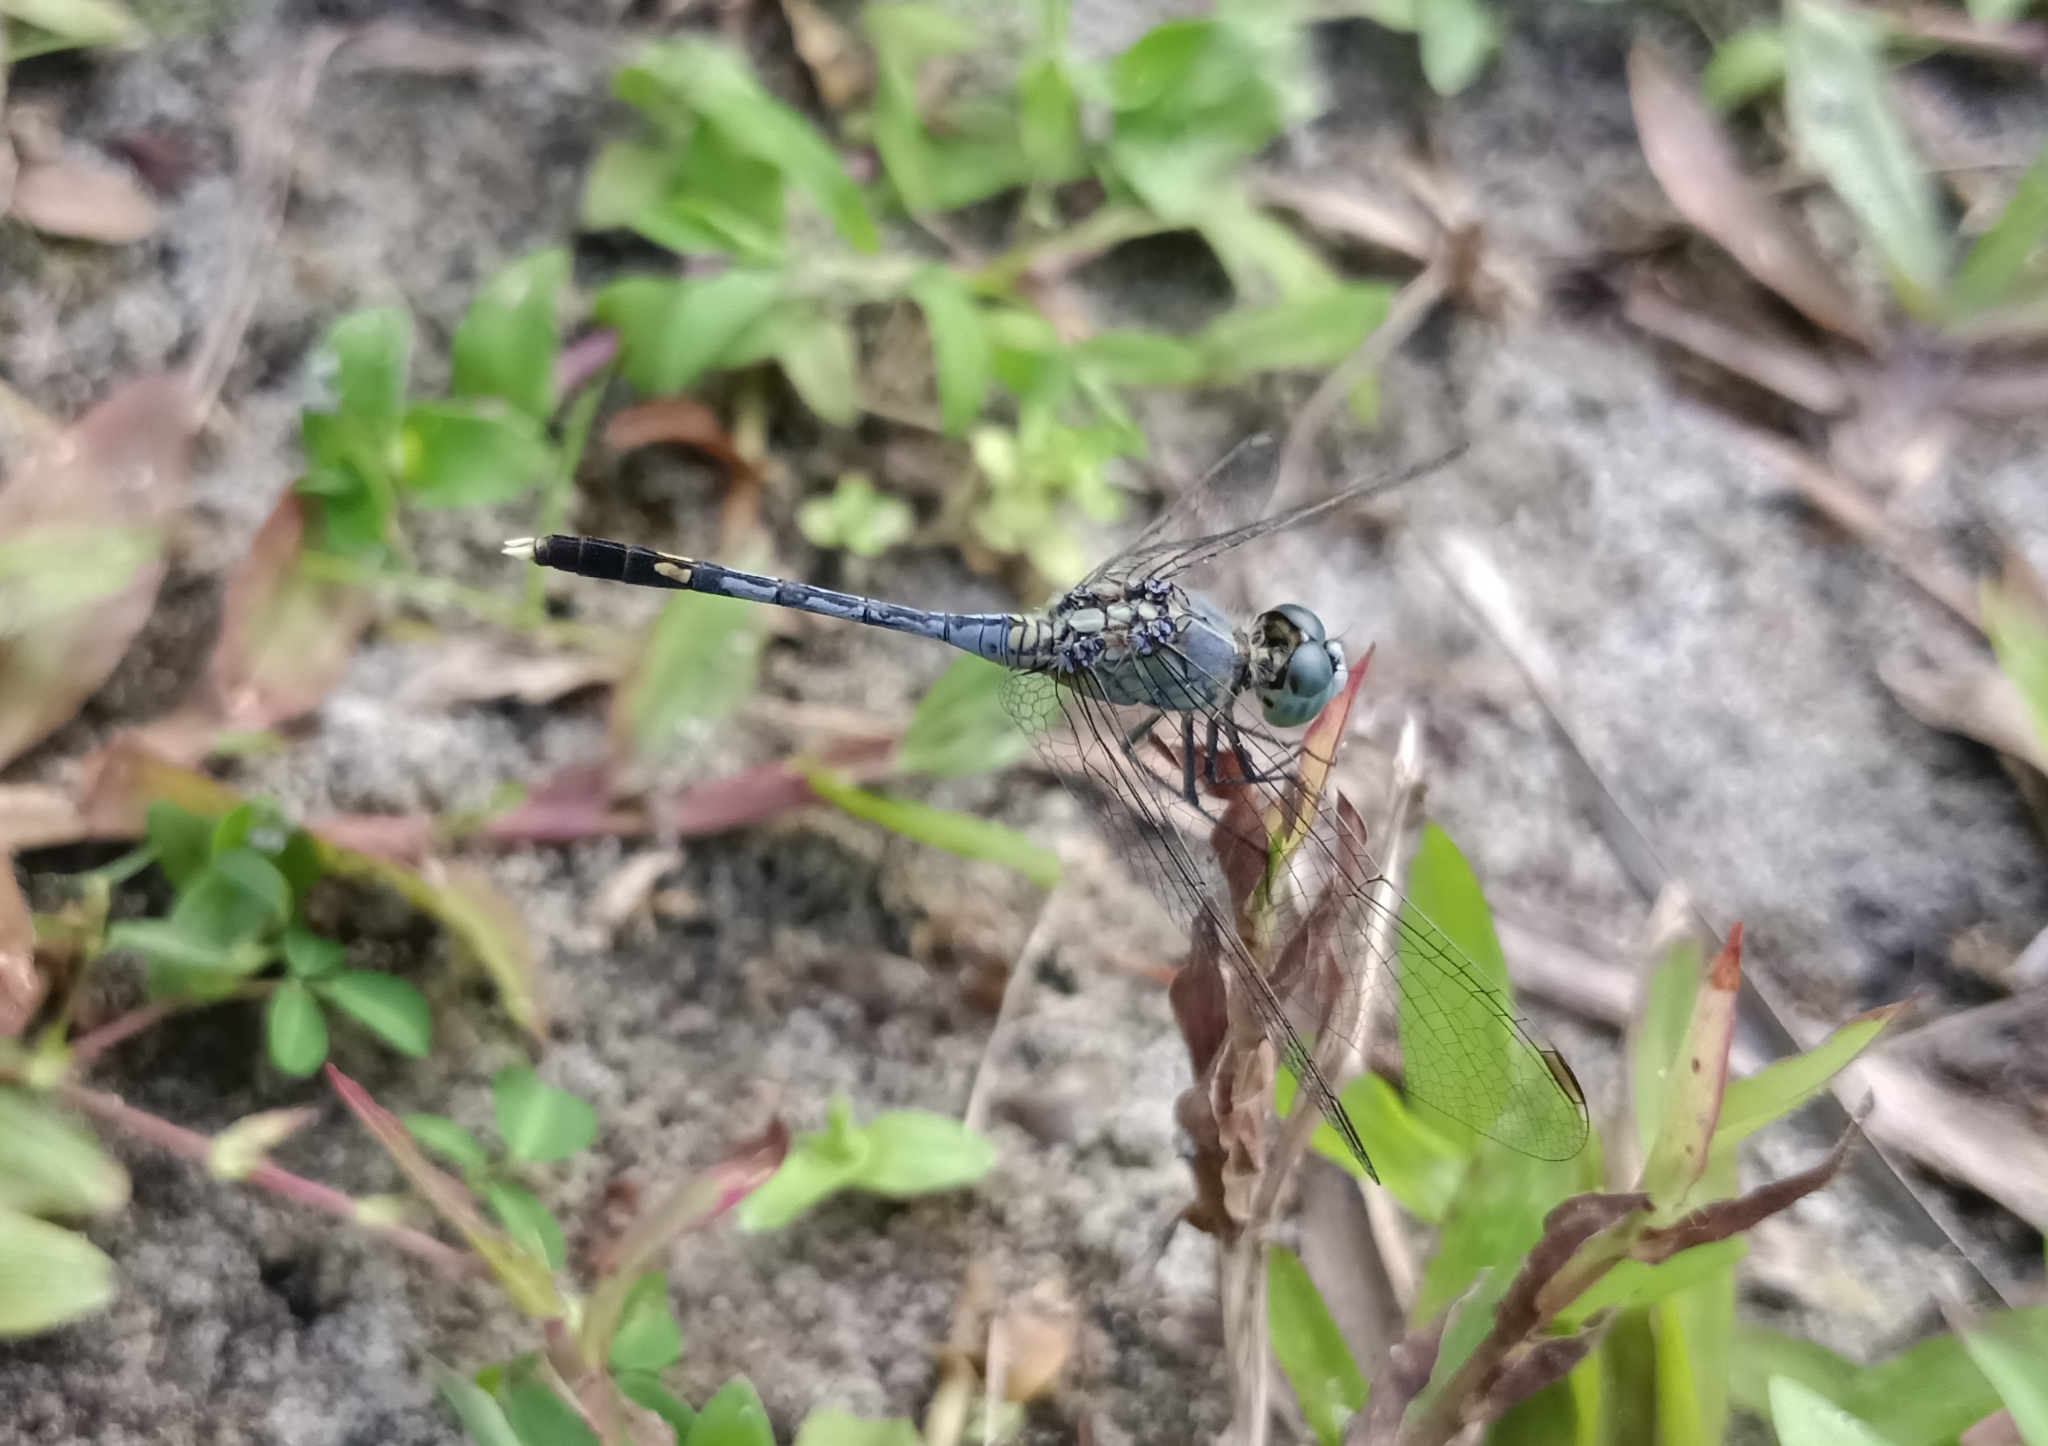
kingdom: Animalia
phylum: Arthropoda
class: Insecta
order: Odonata
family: Libellulidae
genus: Diplacodes
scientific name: Diplacodes trivialis
